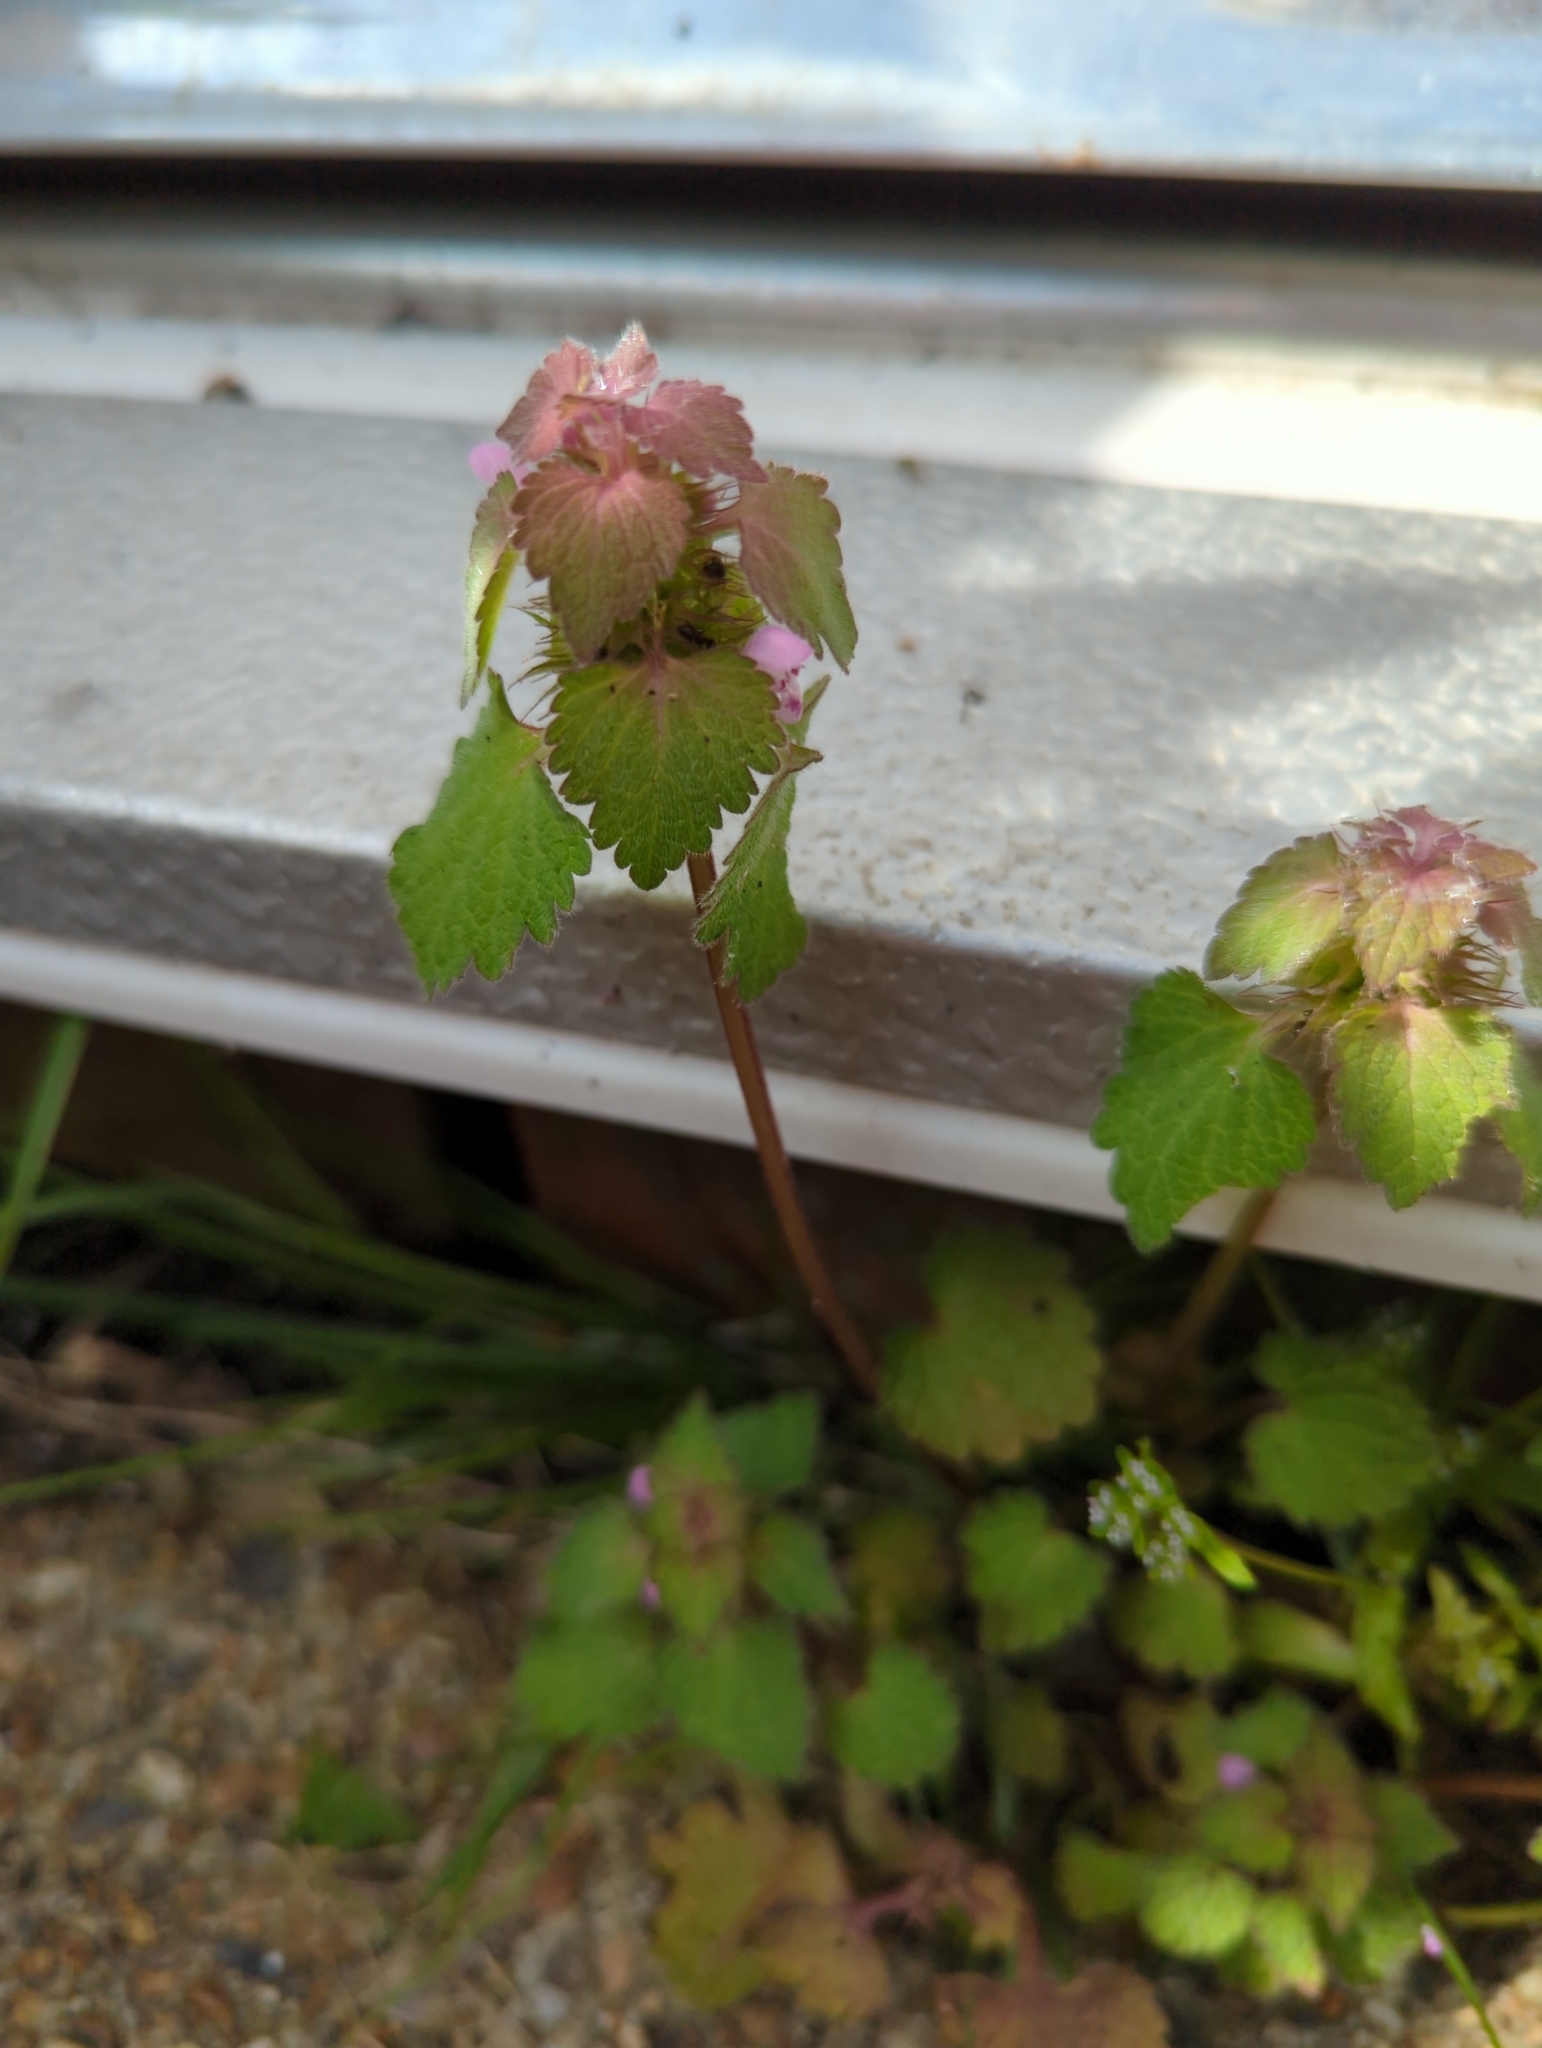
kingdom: Plantae
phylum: Tracheophyta
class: Magnoliopsida
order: Lamiales
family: Lamiaceae
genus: Lamium
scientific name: Lamium purpureum
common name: Red dead-nettle
